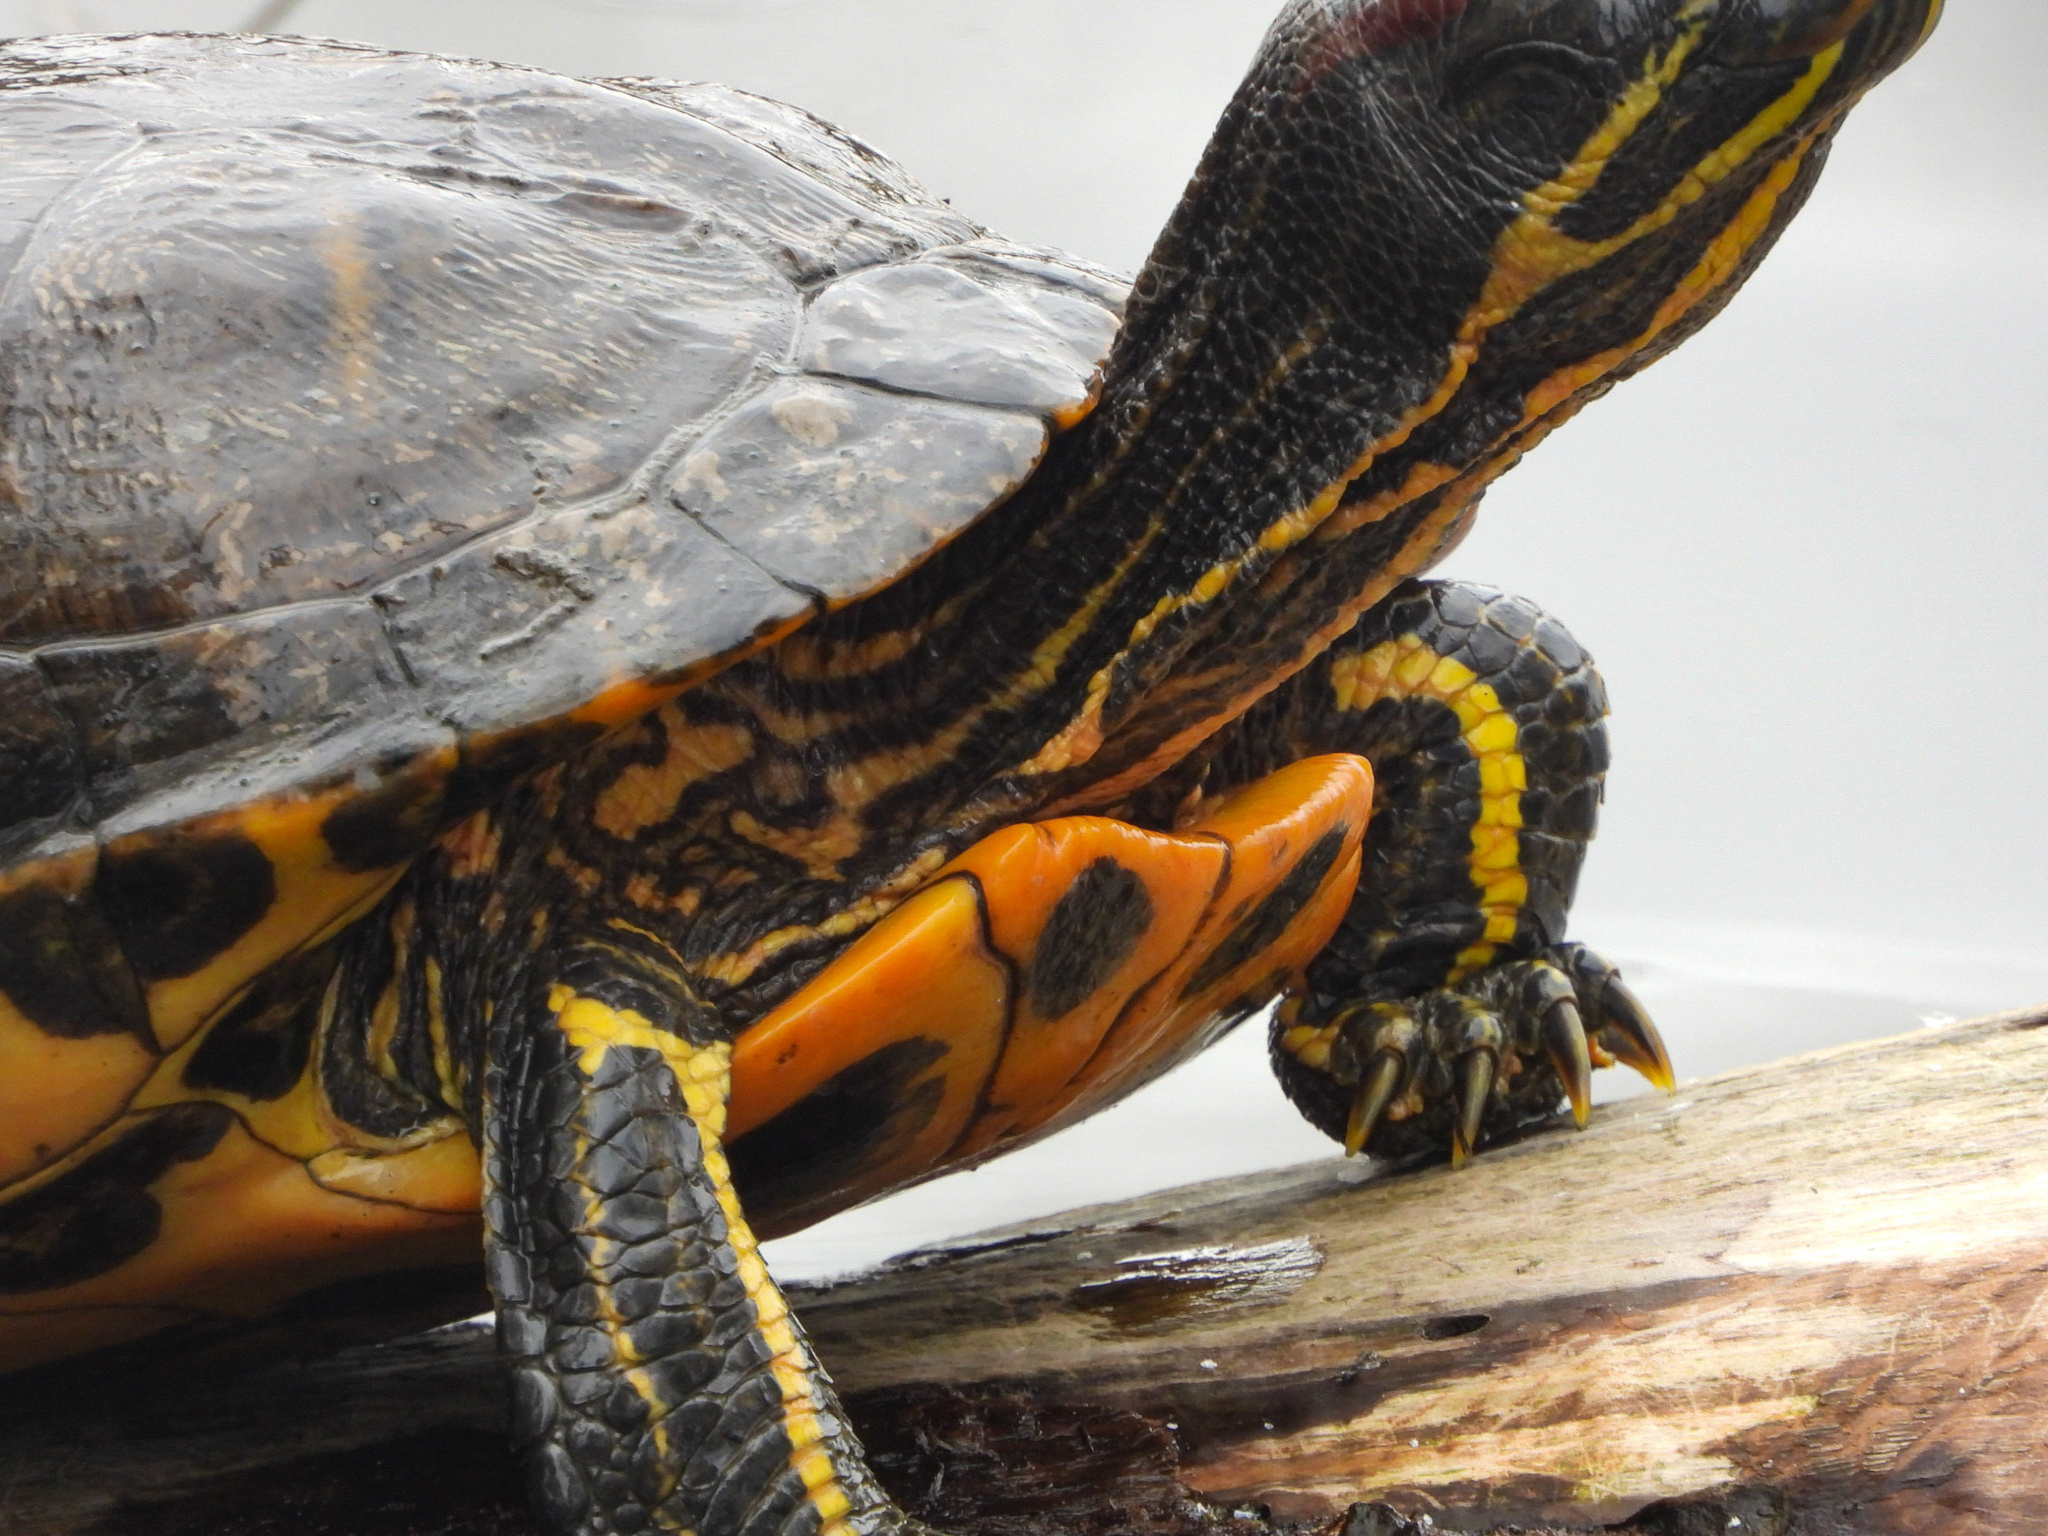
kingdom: Animalia
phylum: Chordata
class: Testudines
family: Emydidae
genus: Trachemys
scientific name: Trachemys scripta
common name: Slider
